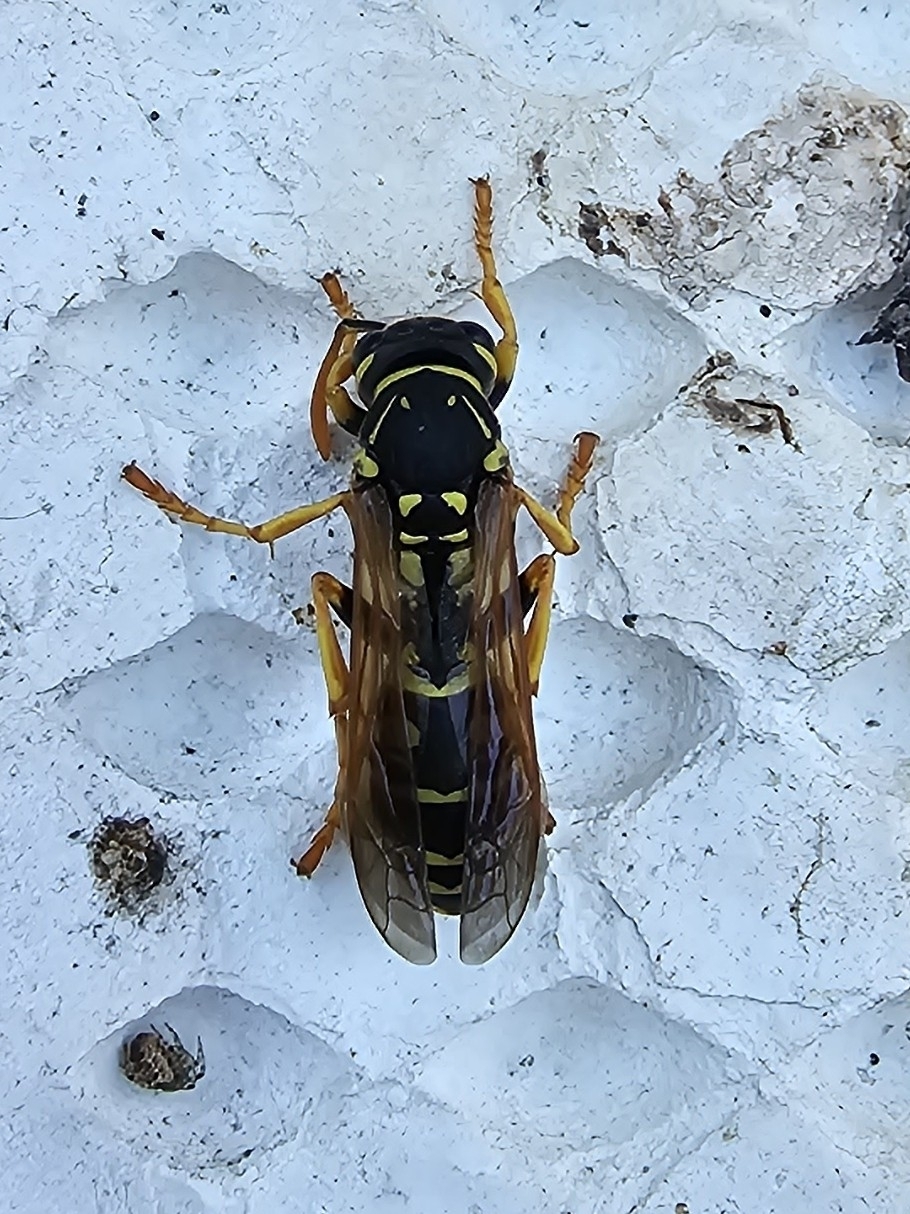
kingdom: Animalia
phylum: Arthropoda
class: Insecta
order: Hymenoptera
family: Eumenidae
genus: Polistes
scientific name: Polistes dominula
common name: Paper wasp
